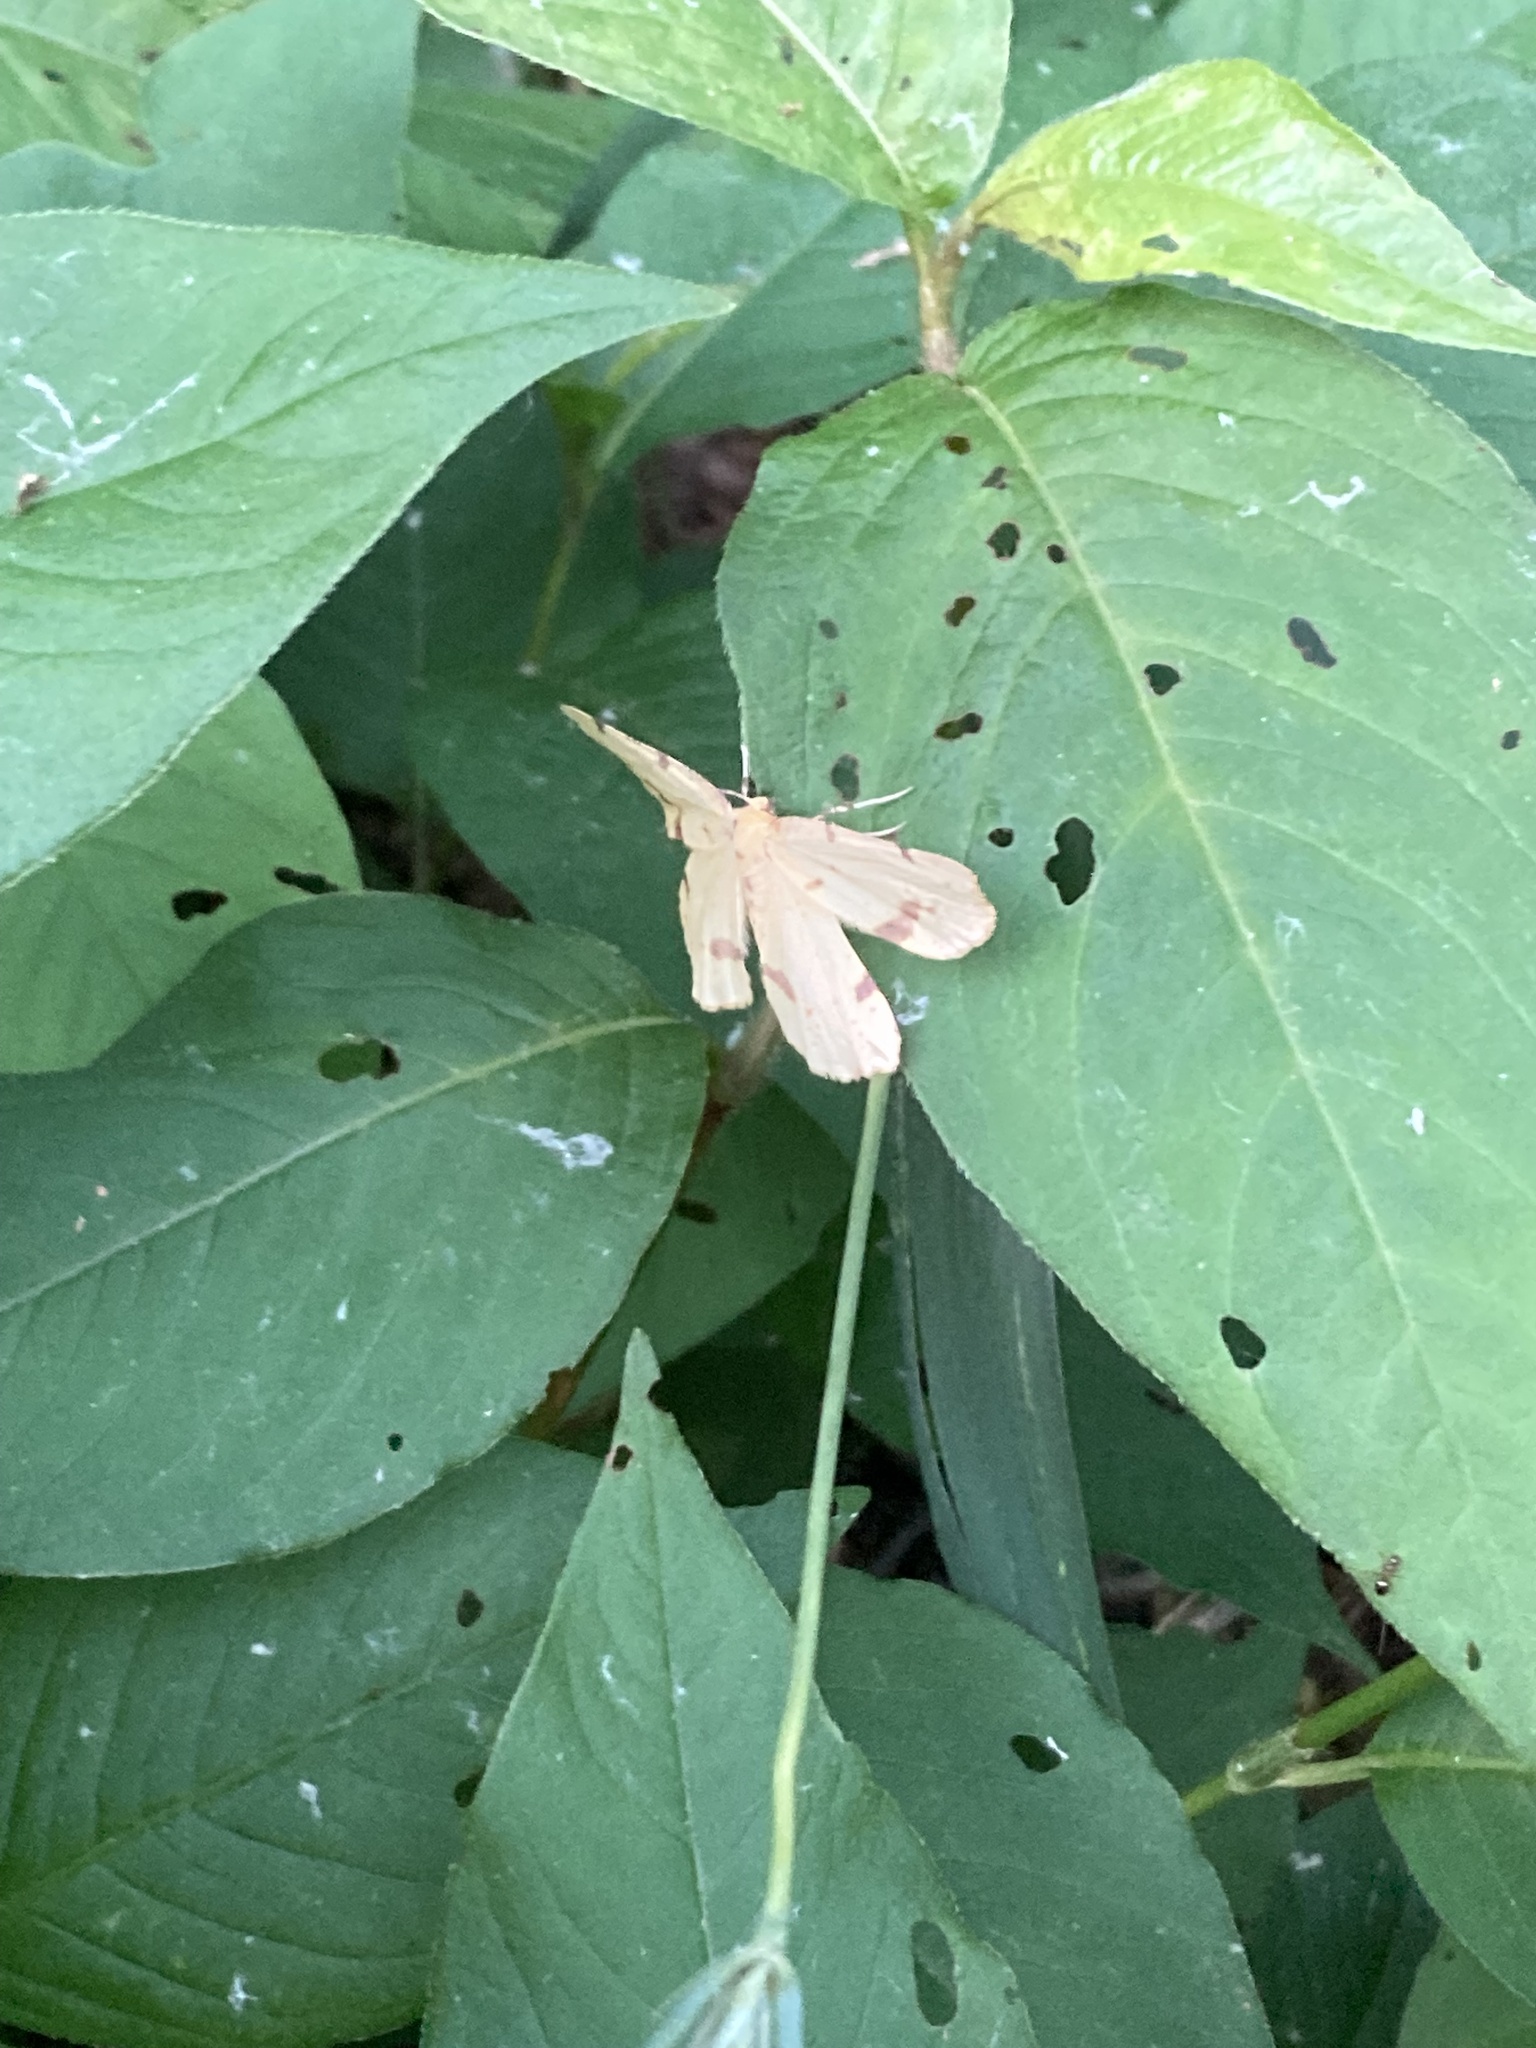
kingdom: Animalia
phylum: Arthropoda
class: Insecta
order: Lepidoptera
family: Geometridae
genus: Xanthotype
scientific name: Xanthotype
